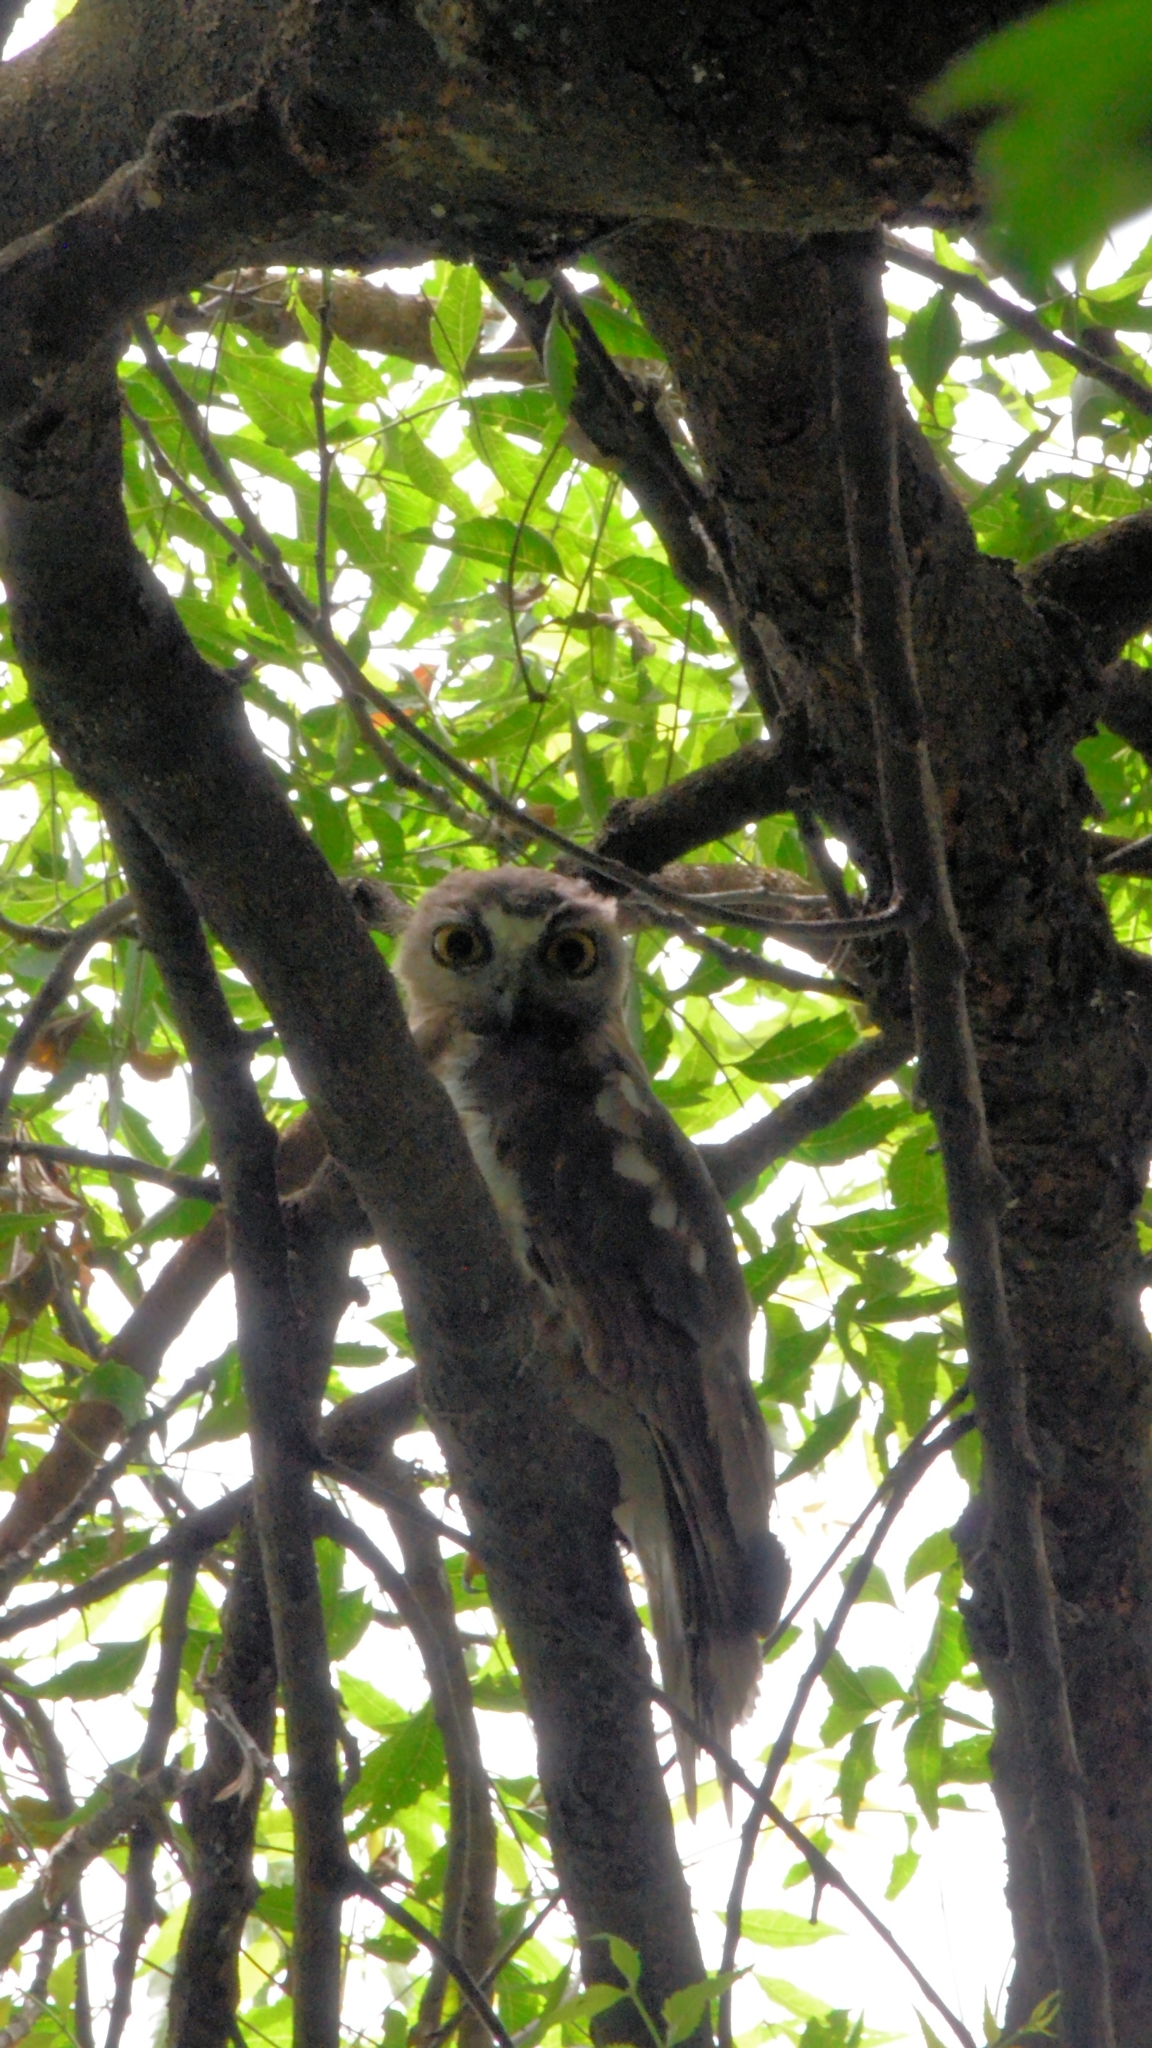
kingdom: Animalia
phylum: Chordata
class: Aves
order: Strigiformes
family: Strigidae
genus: Ninox
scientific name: Ninox scutulata
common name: Brown hawk-owl
